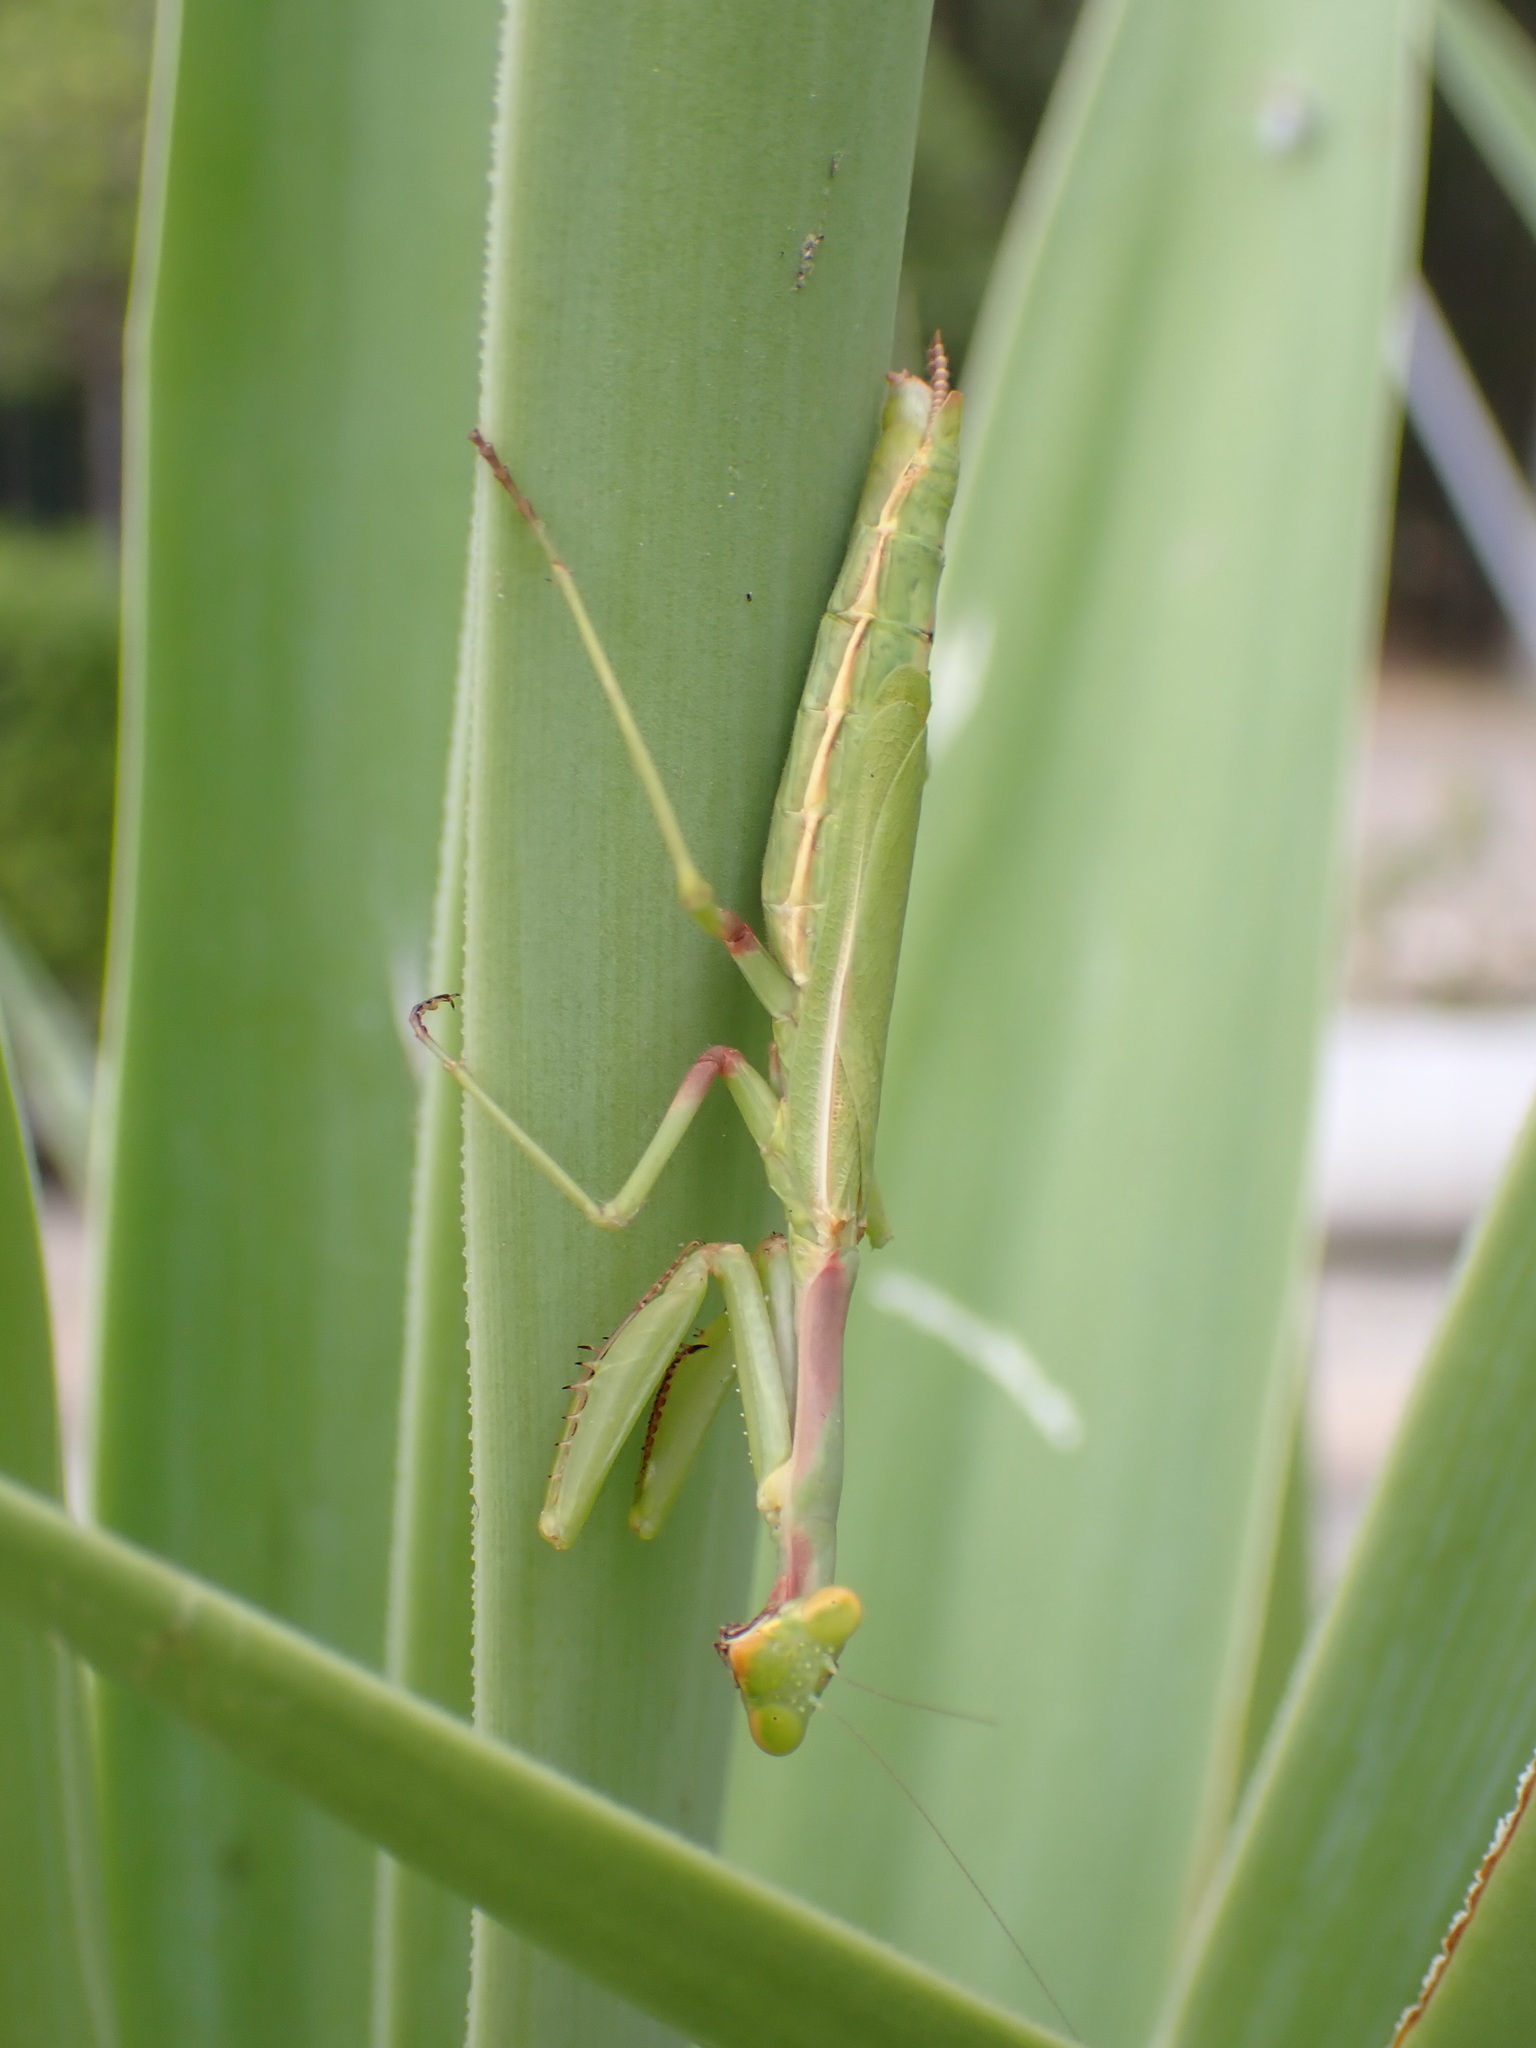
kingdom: Animalia
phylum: Arthropoda
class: Insecta
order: Mantodea
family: Eremiaphilidae
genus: Iris
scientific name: Iris oratoria
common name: Mediterranean mantis
